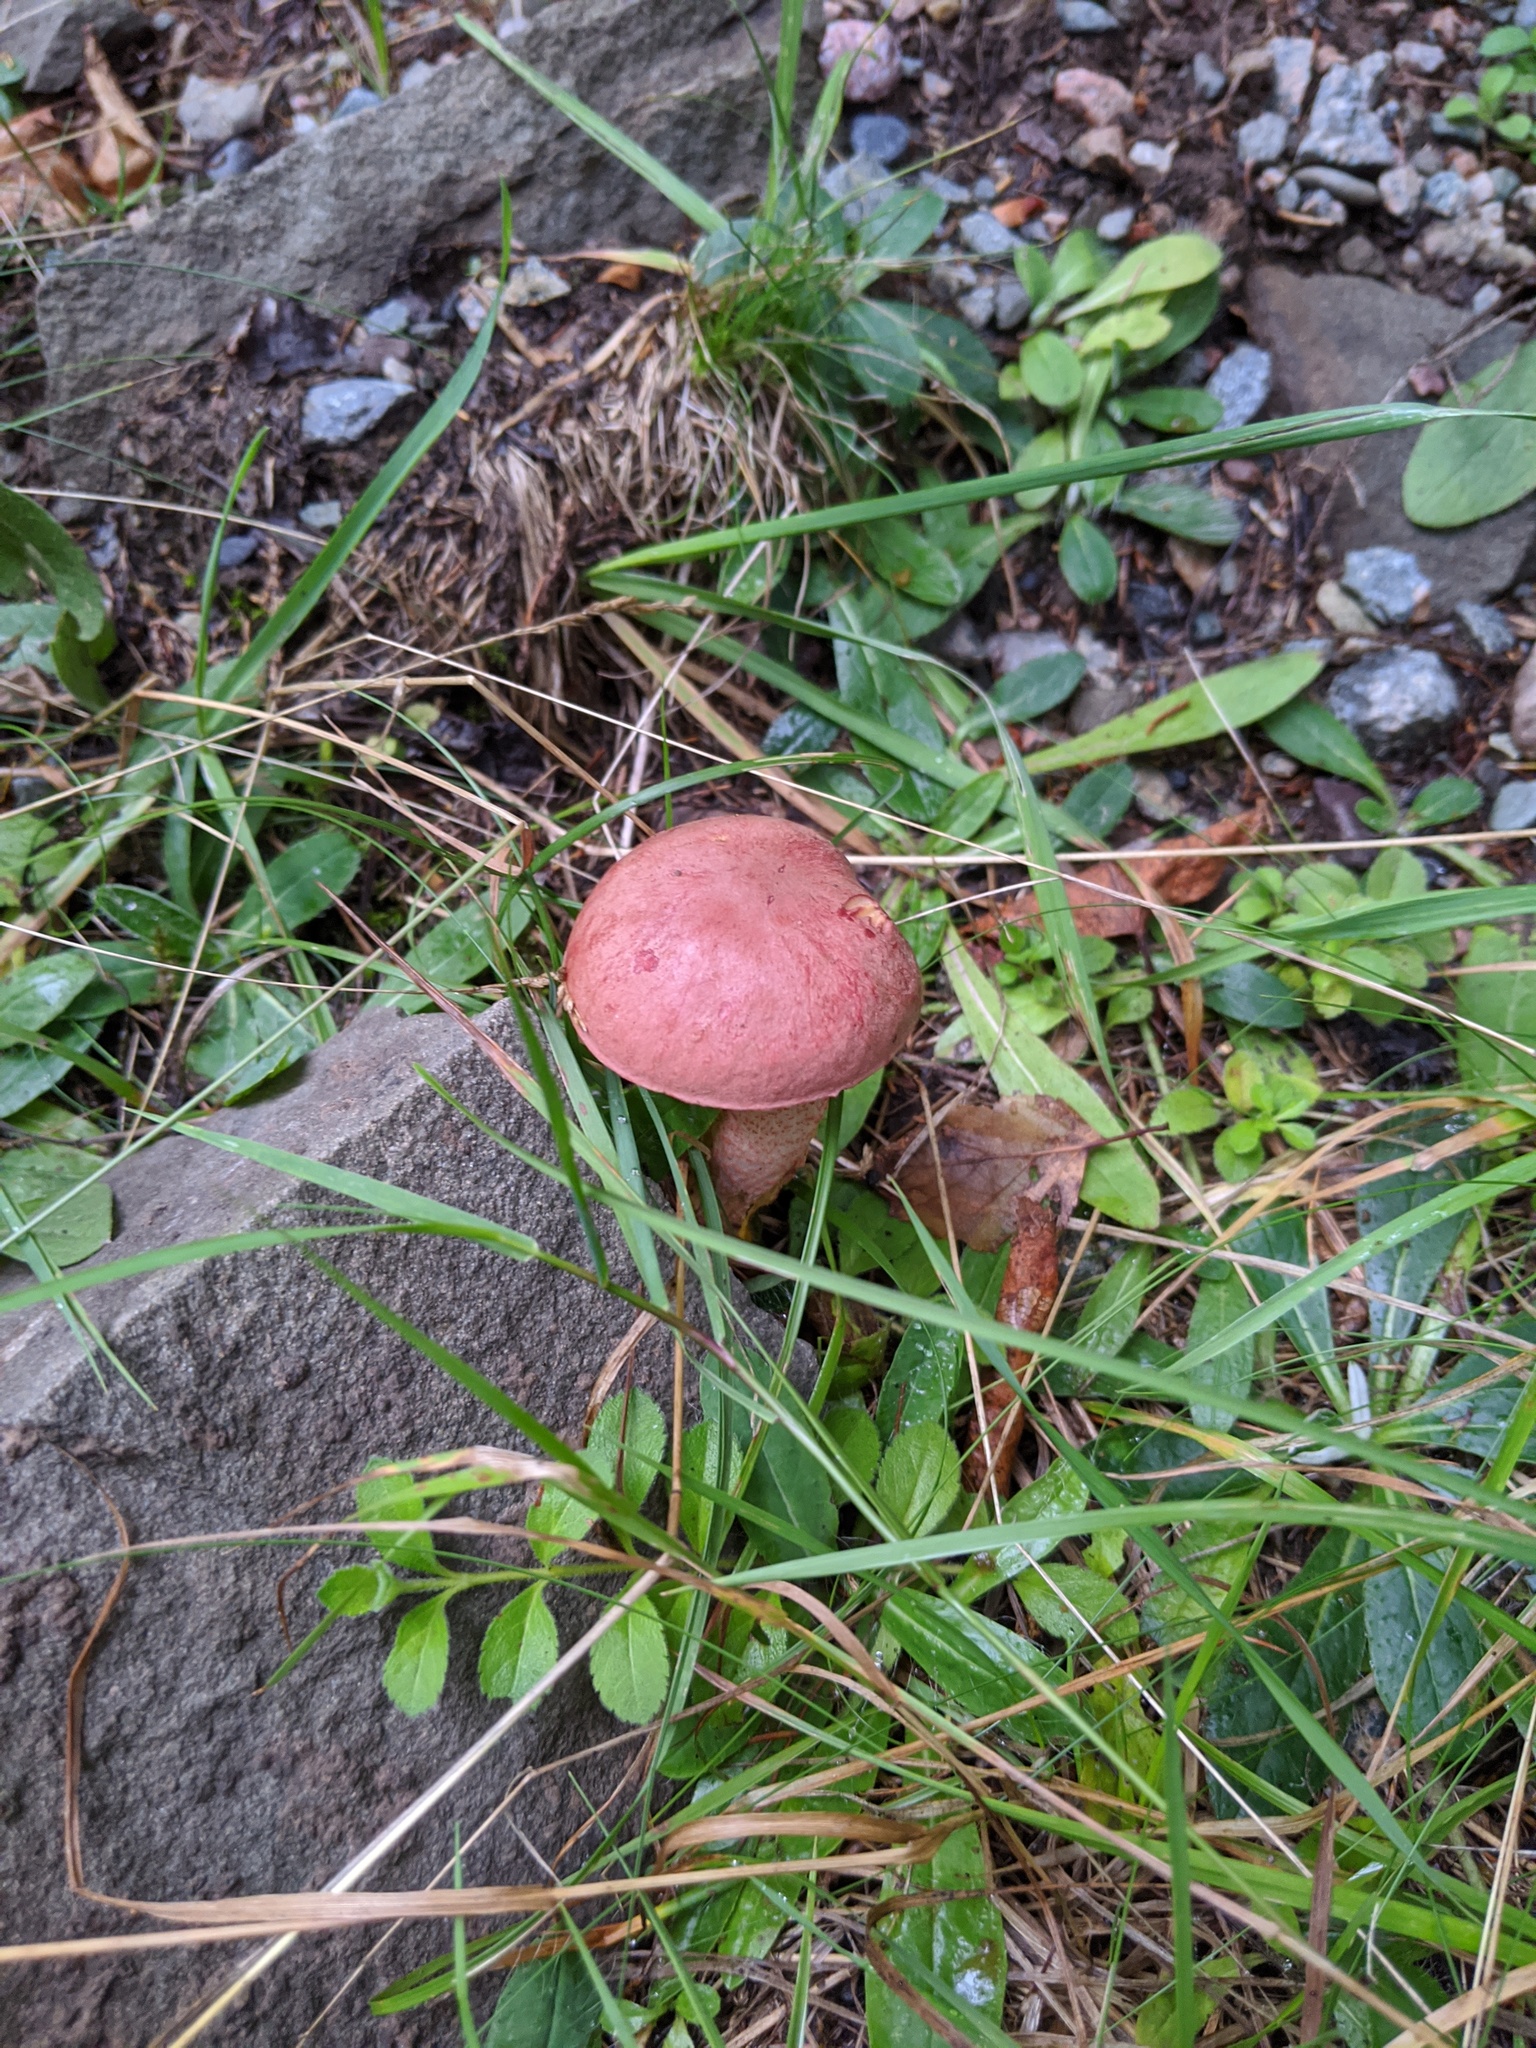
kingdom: Fungi
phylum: Basidiomycota
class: Agaricomycetes
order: Boletales
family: Boletaceae
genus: Harrya
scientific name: Harrya chromipes
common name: Chrome-footed bolete
